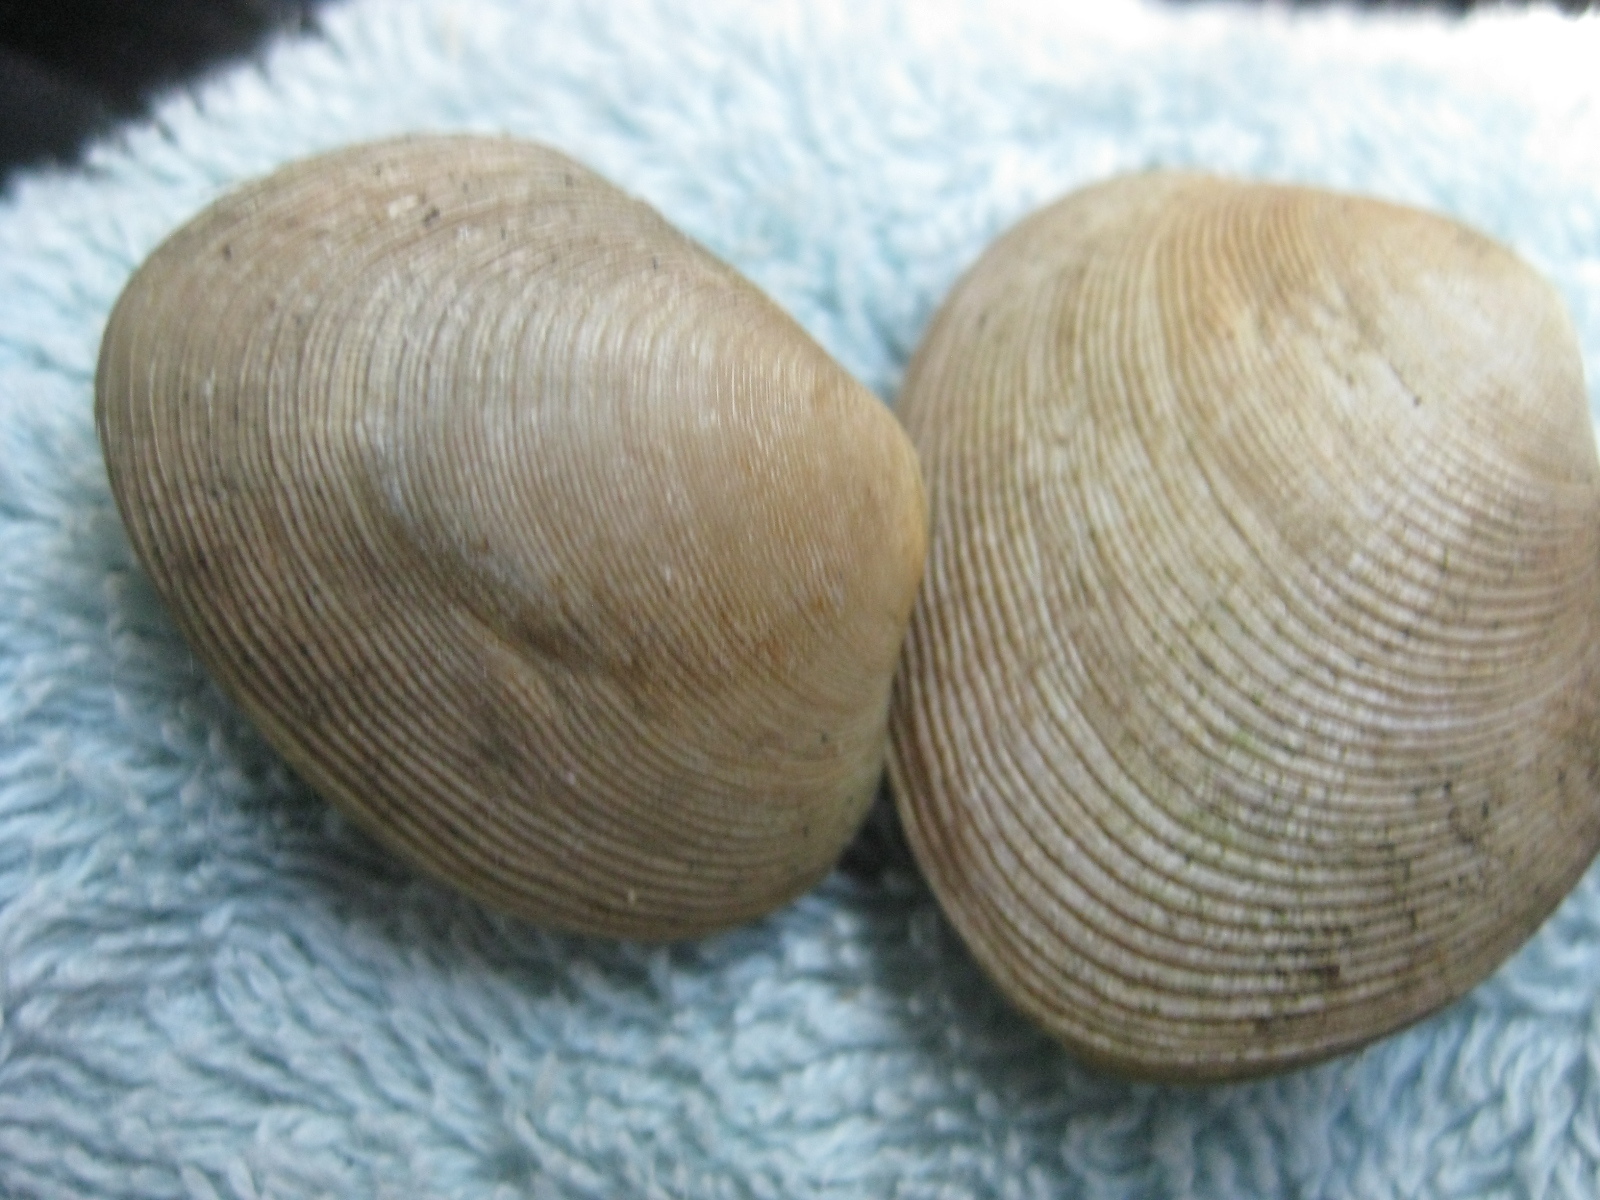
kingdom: Animalia
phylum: Mollusca
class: Bivalvia
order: Venerida
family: Veneridae
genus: Venerupis
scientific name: Venerupis largillierti
